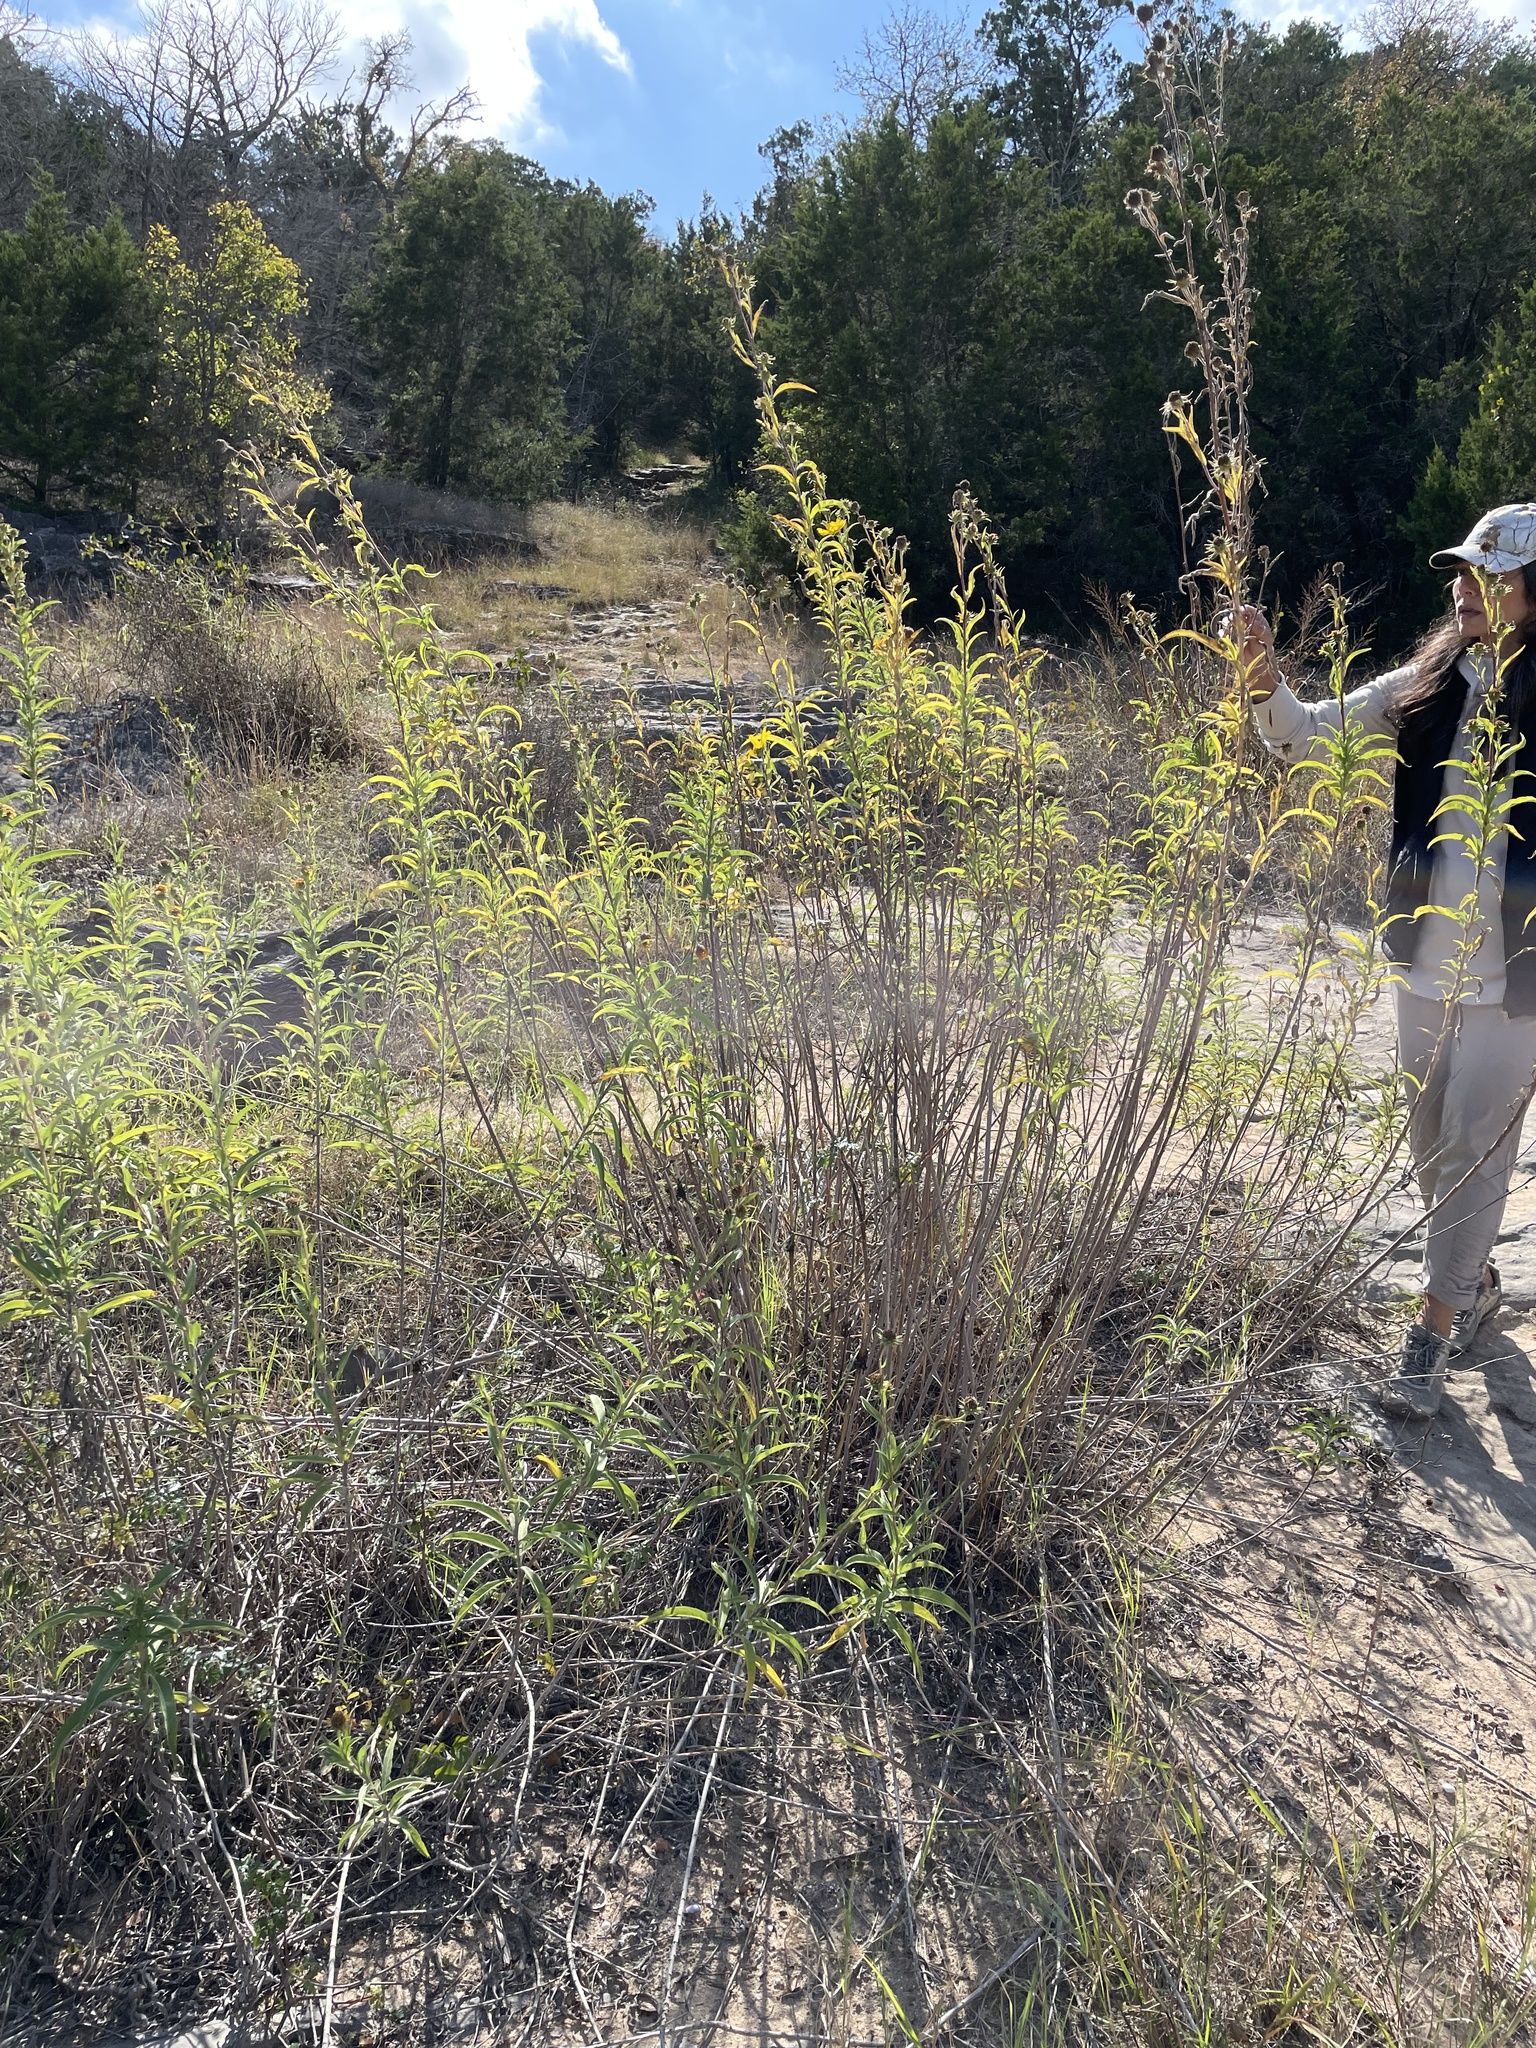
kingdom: Plantae
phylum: Tracheophyta
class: Magnoliopsida
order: Asterales
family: Asteraceae
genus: Helianthus
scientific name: Helianthus maximiliani
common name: Maximilian's sunflower
